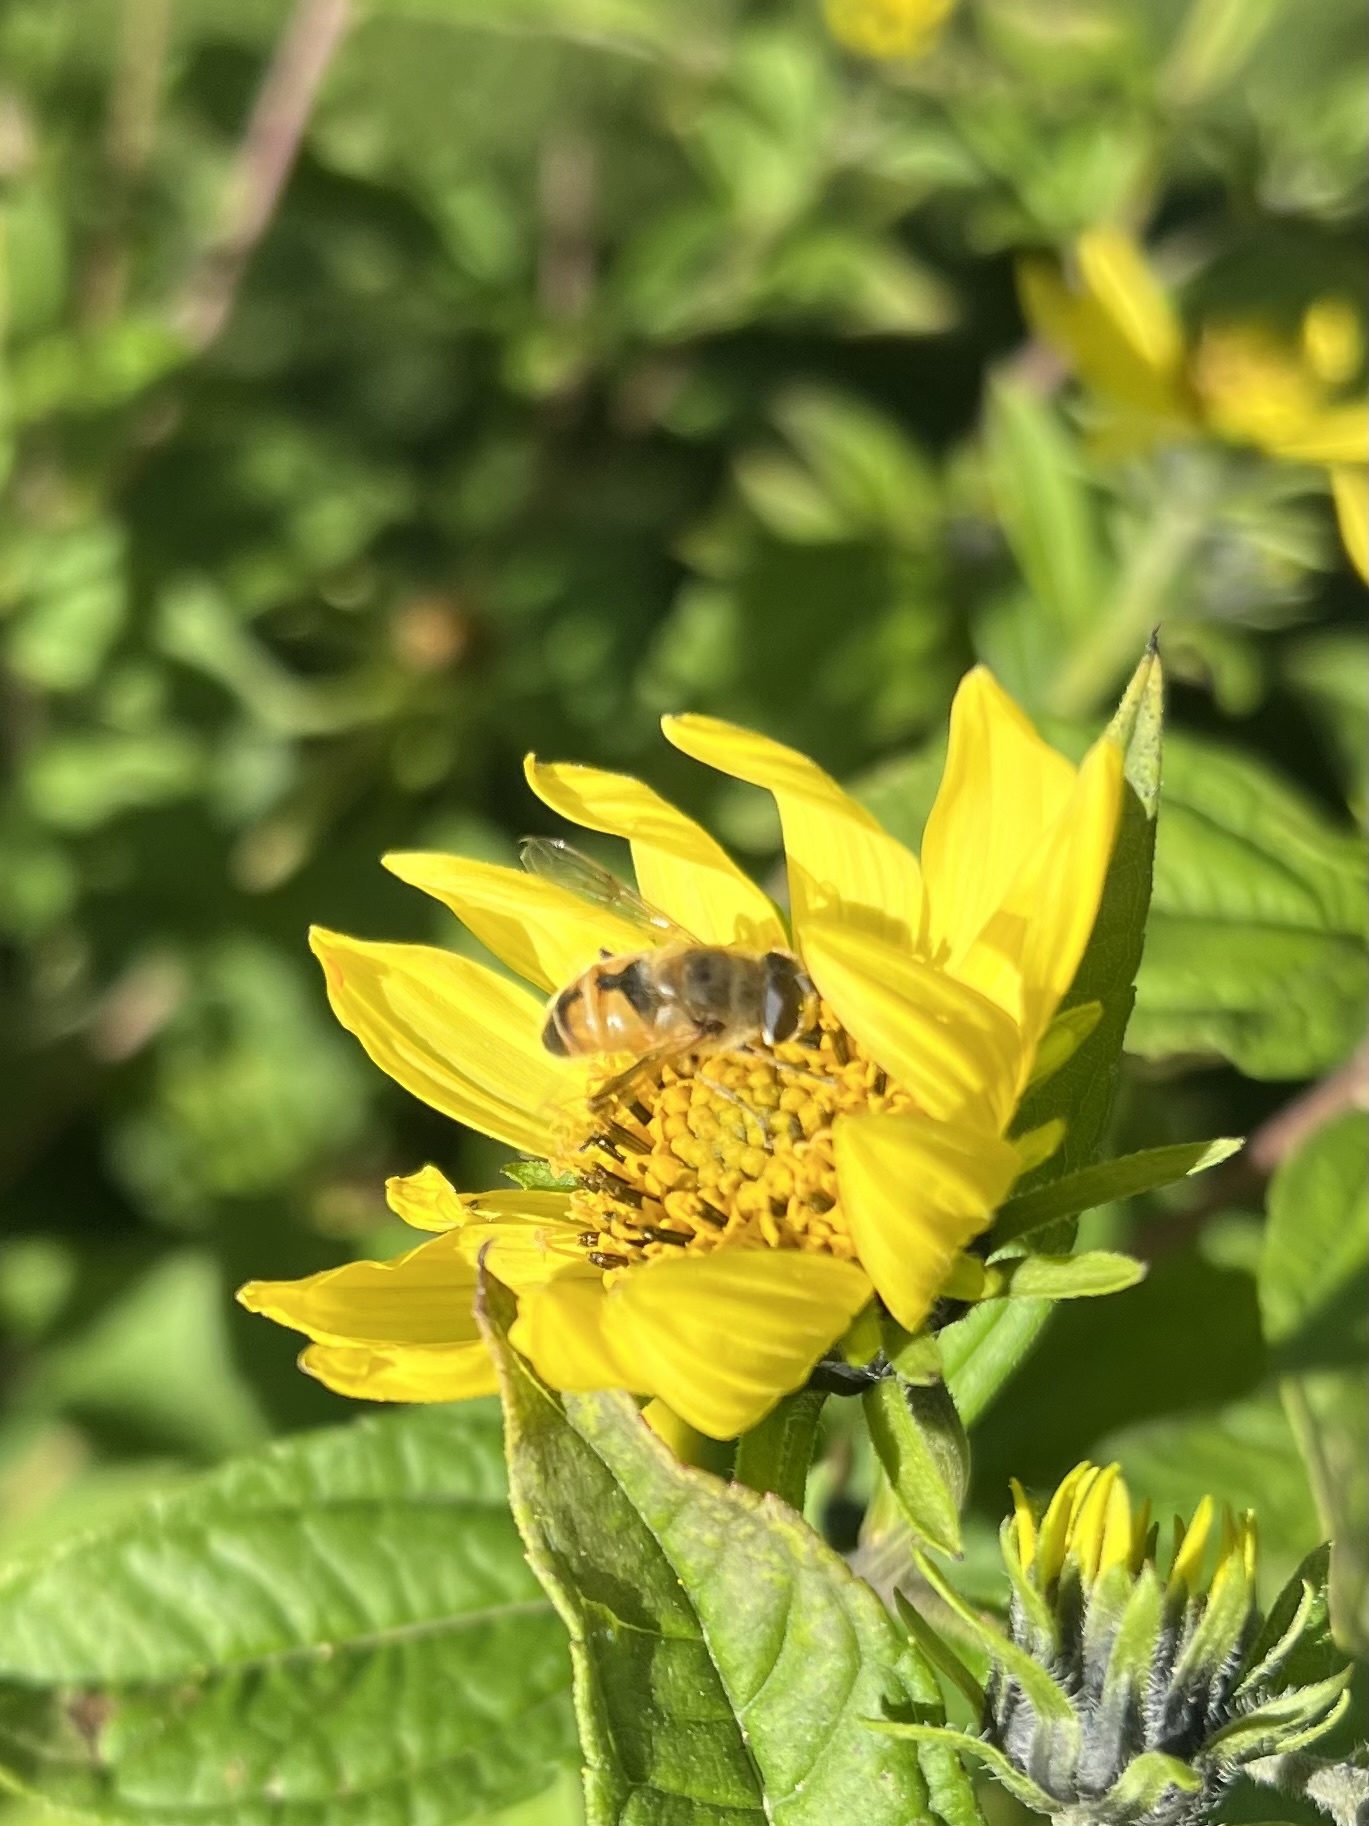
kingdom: Animalia
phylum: Arthropoda
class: Insecta
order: Diptera
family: Syrphidae
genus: Eristalis
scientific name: Eristalis tenax
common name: Drone fly
